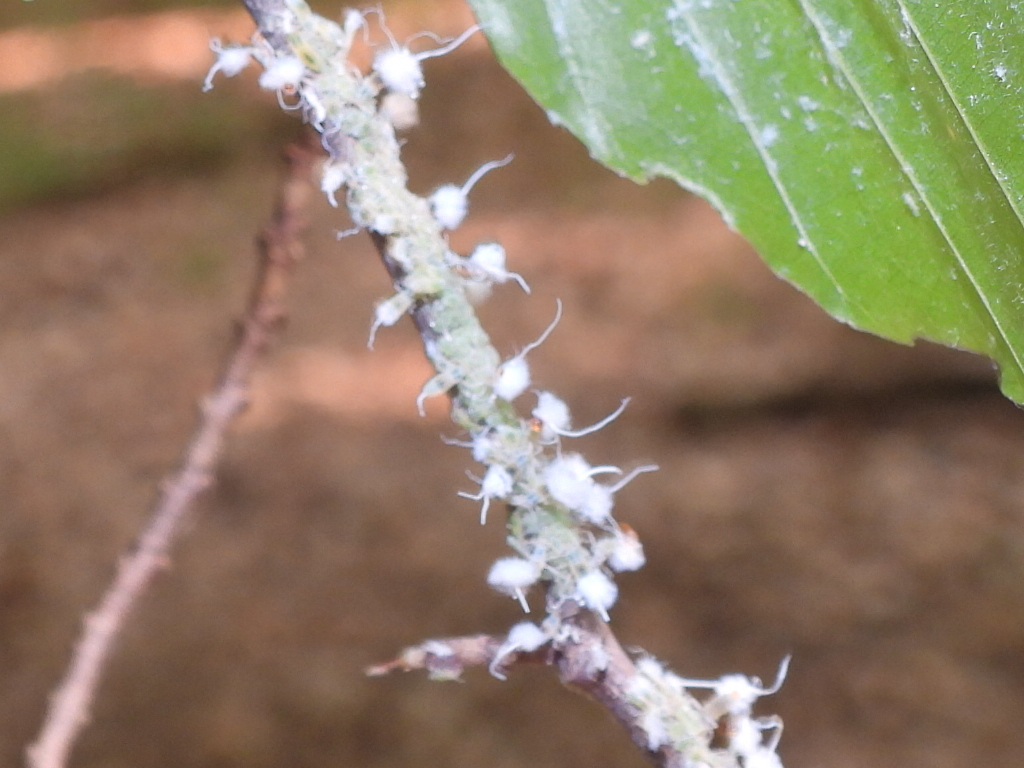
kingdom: Animalia
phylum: Arthropoda
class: Insecta
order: Hemiptera
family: Aphididae
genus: Grylloprociphilus
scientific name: Grylloprociphilus imbricator
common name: Beech blight aphid
